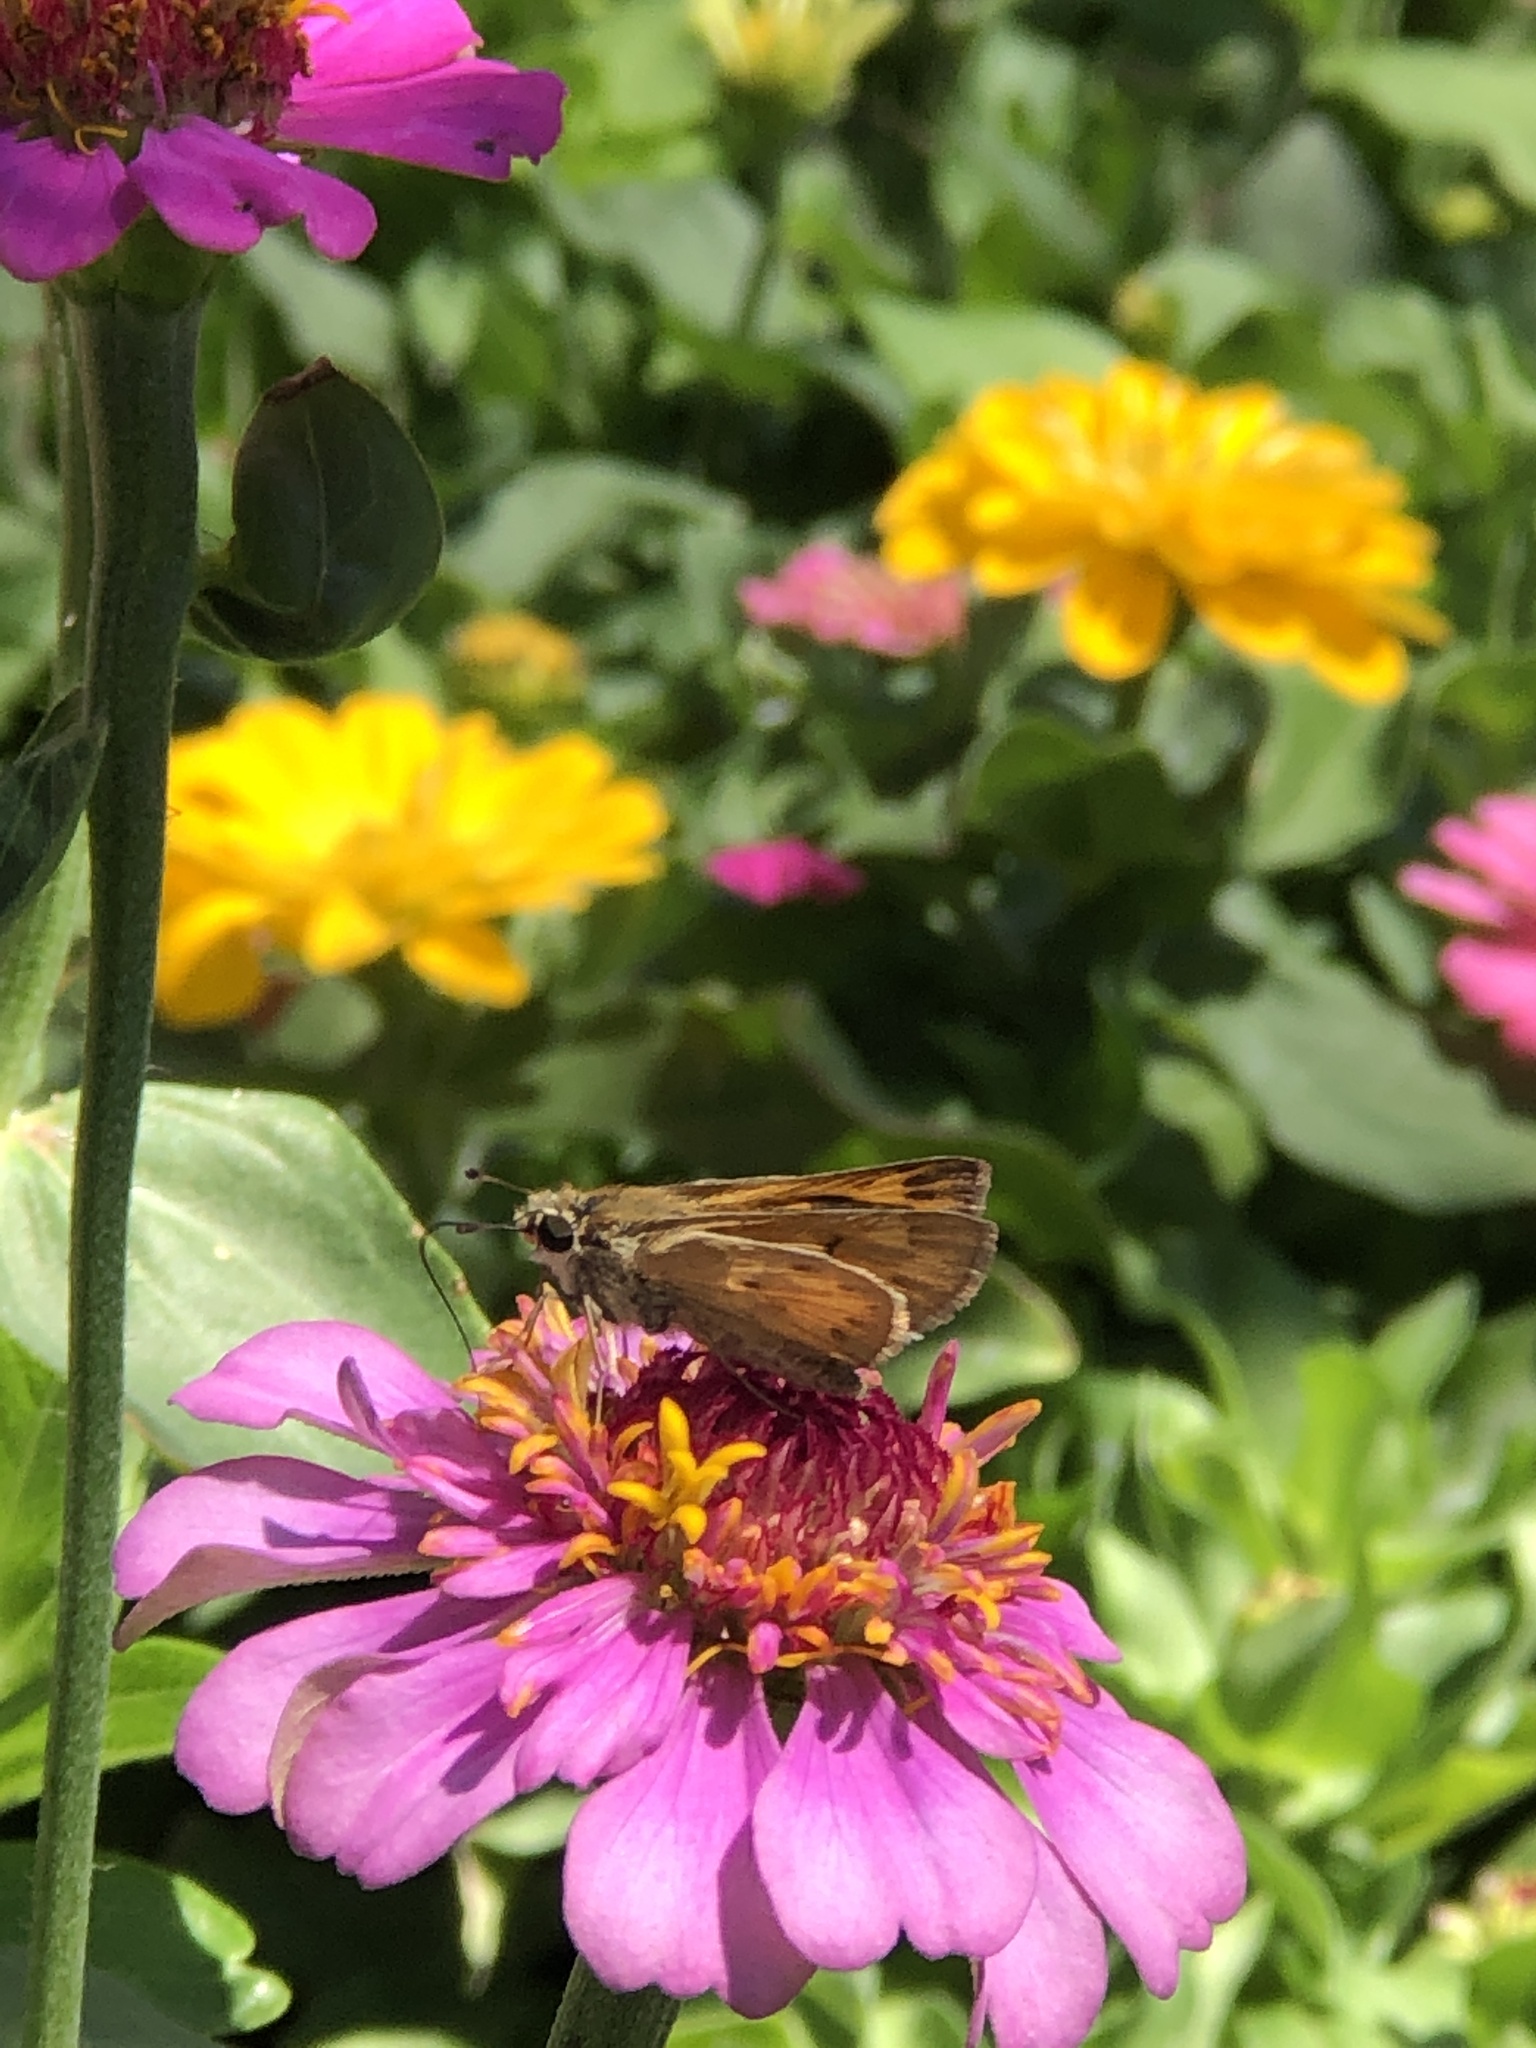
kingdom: Animalia
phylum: Arthropoda
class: Insecta
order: Lepidoptera
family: Hesperiidae
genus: Hylephila
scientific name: Hylephila phyleus
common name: Fiery skipper
